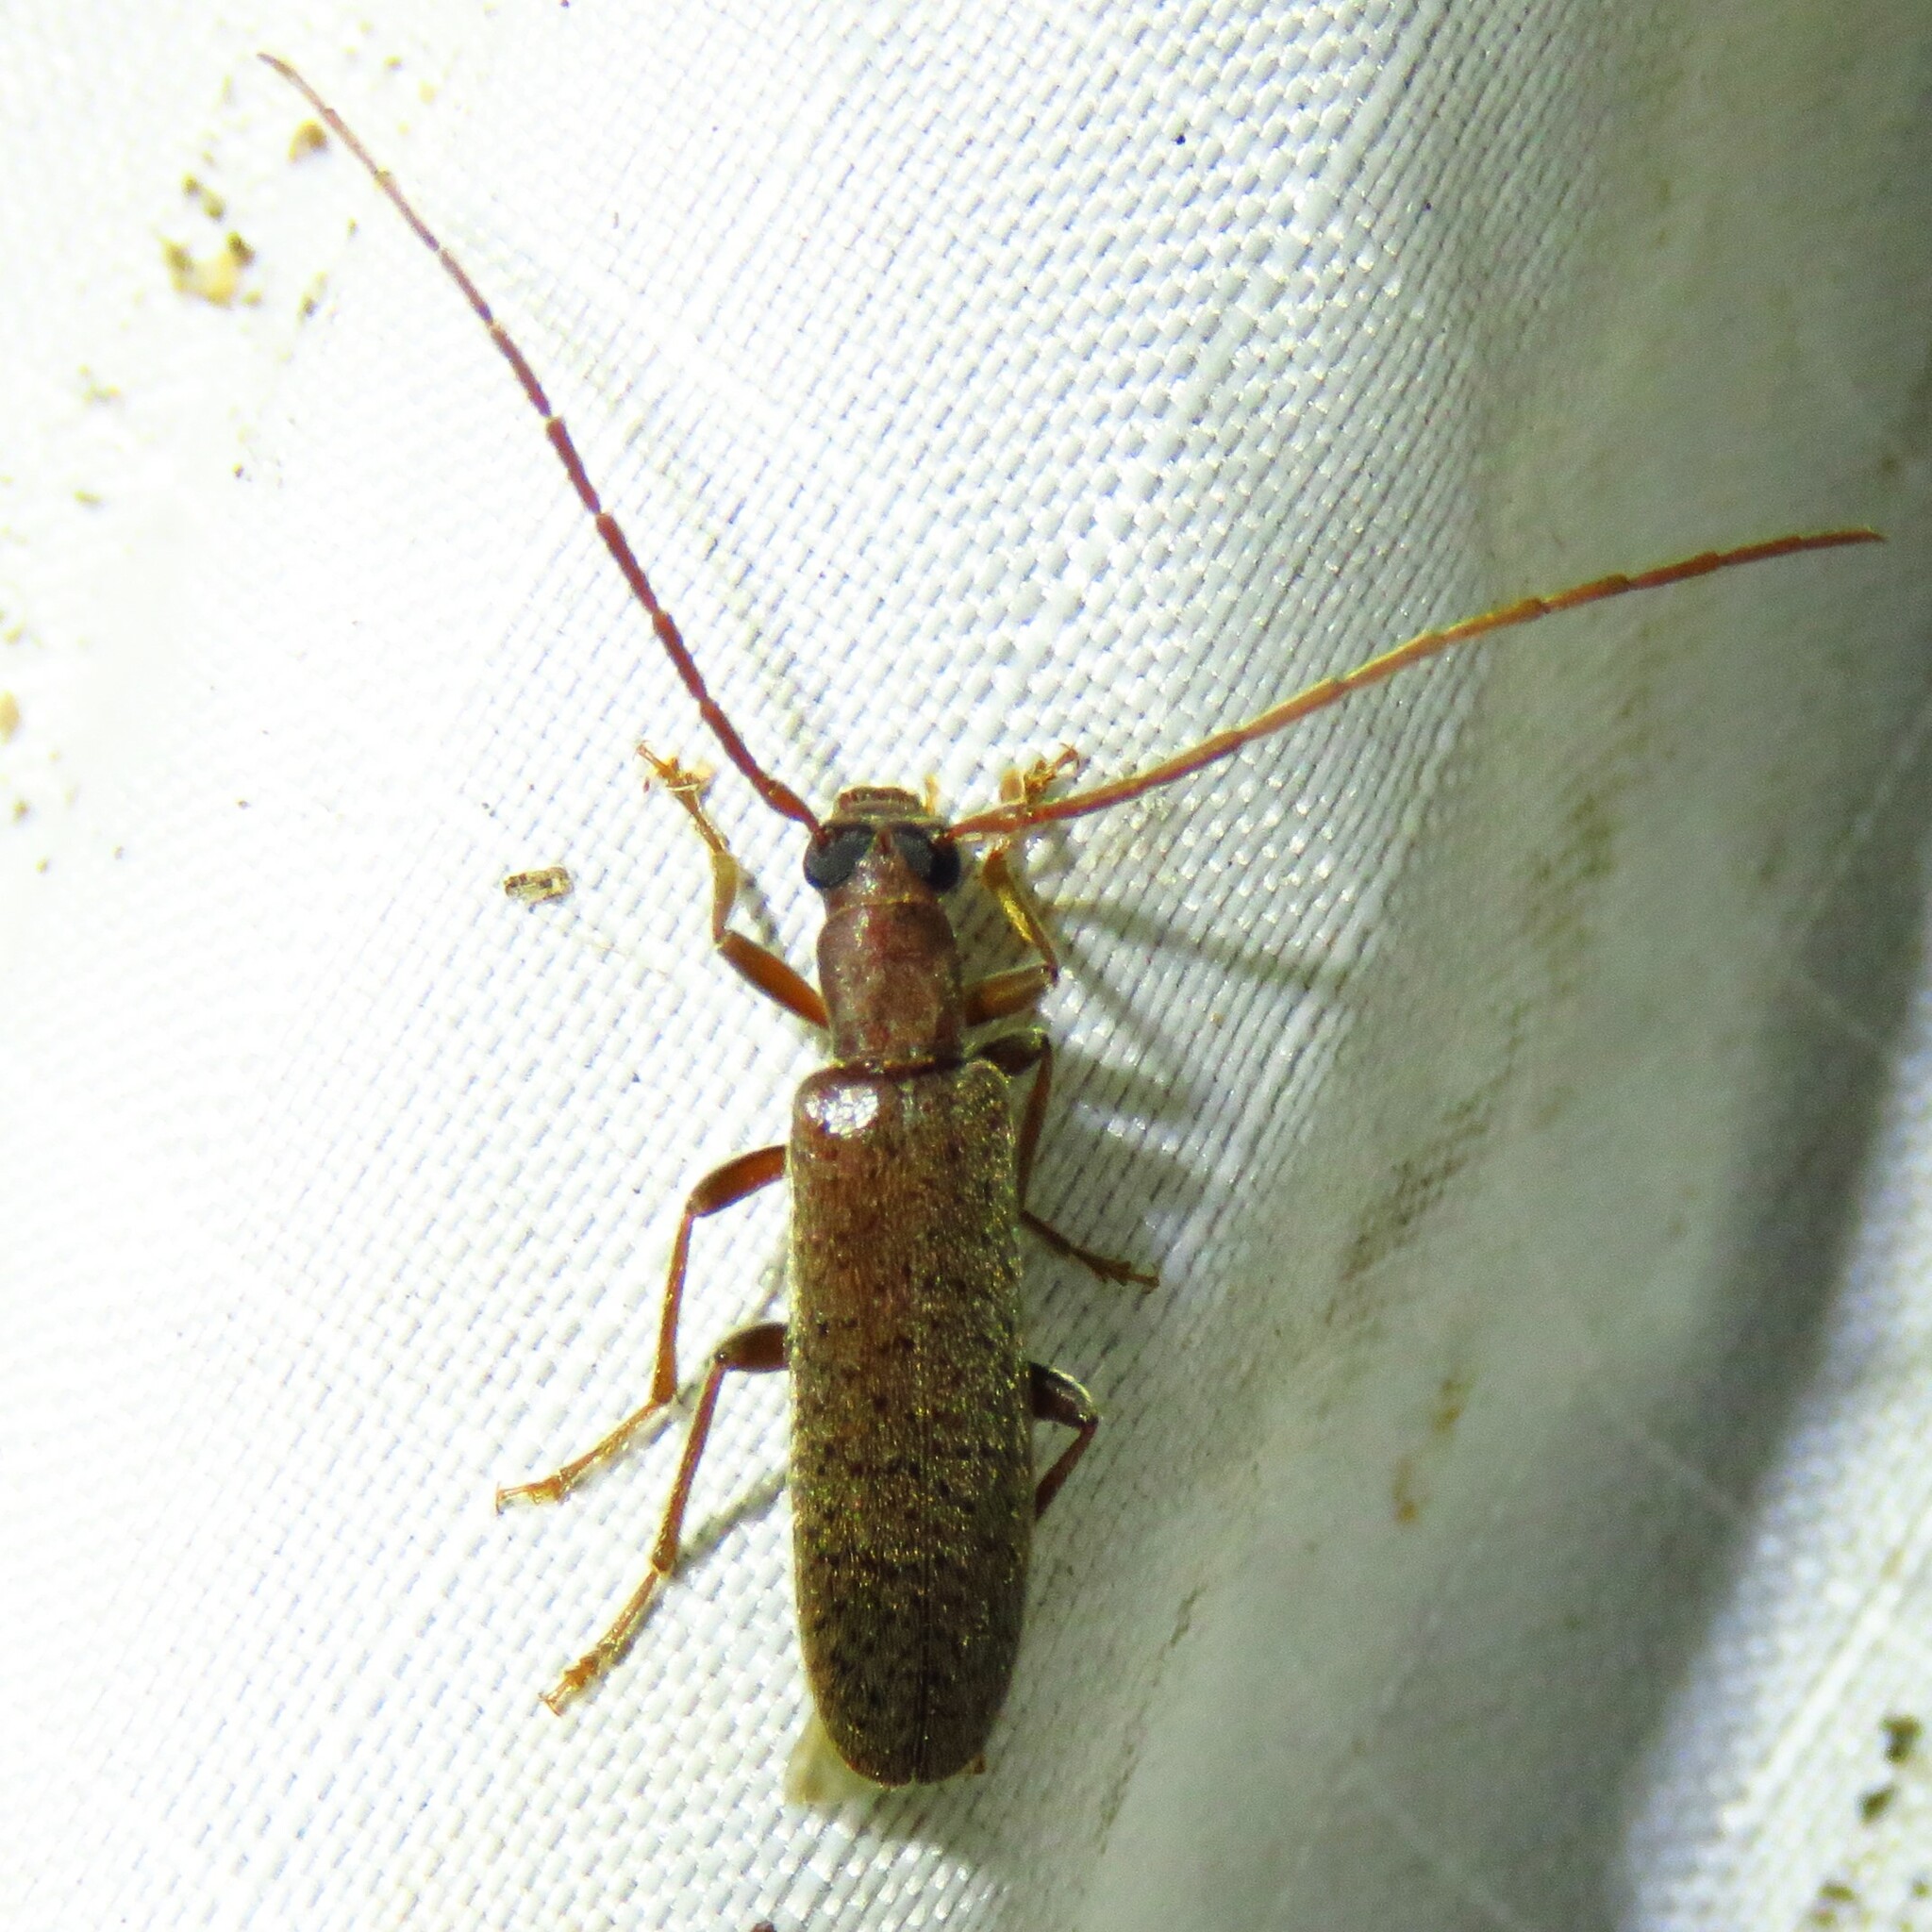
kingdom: Animalia
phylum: Arthropoda
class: Insecta
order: Coleoptera
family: Oedemeridae
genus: Sparedrus
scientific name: Sparedrus aspersus
